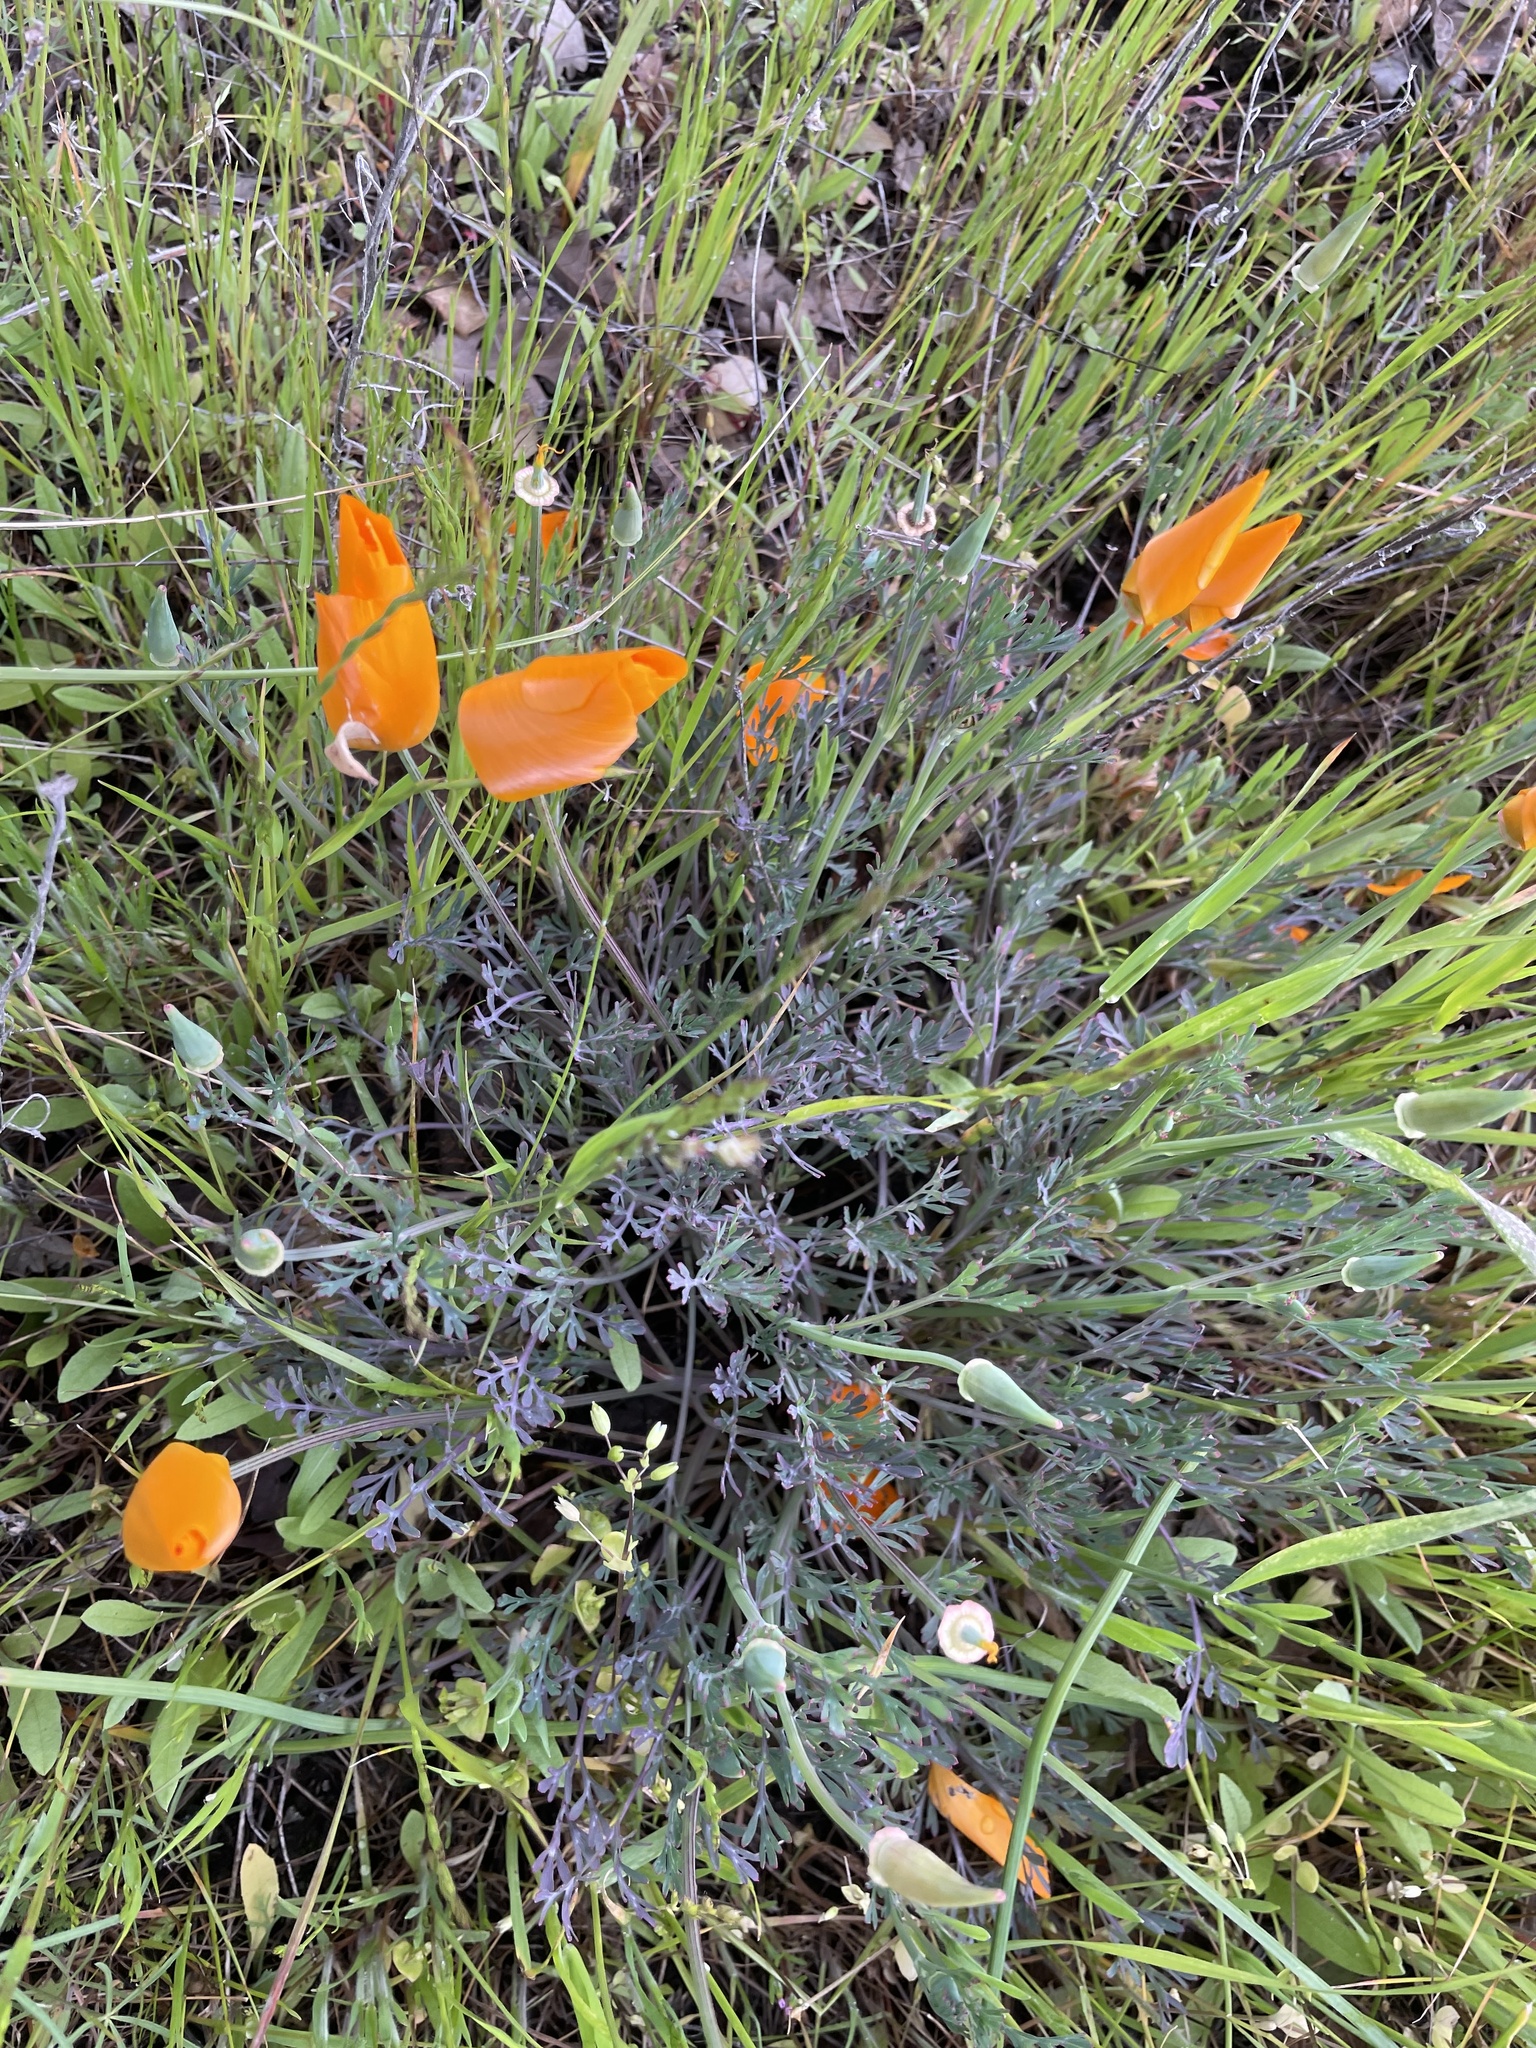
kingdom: Plantae
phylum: Tracheophyta
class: Magnoliopsida
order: Ranunculales
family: Papaveraceae
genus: Eschscholzia
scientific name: Eschscholzia californica
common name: California poppy
